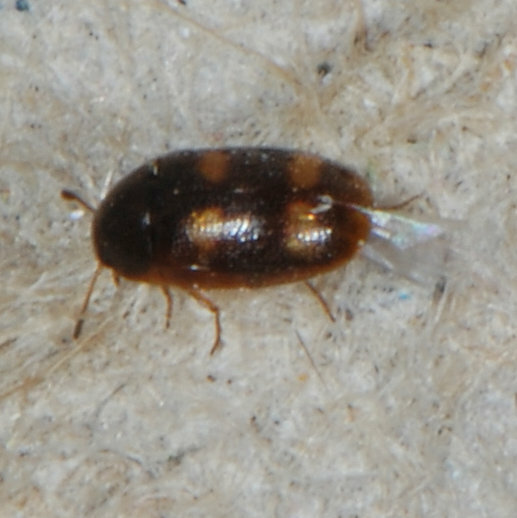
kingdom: Animalia
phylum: Arthropoda
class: Insecta
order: Coleoptera
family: Mycetophagidae
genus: Litargus
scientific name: Litargus tetraspilotus
